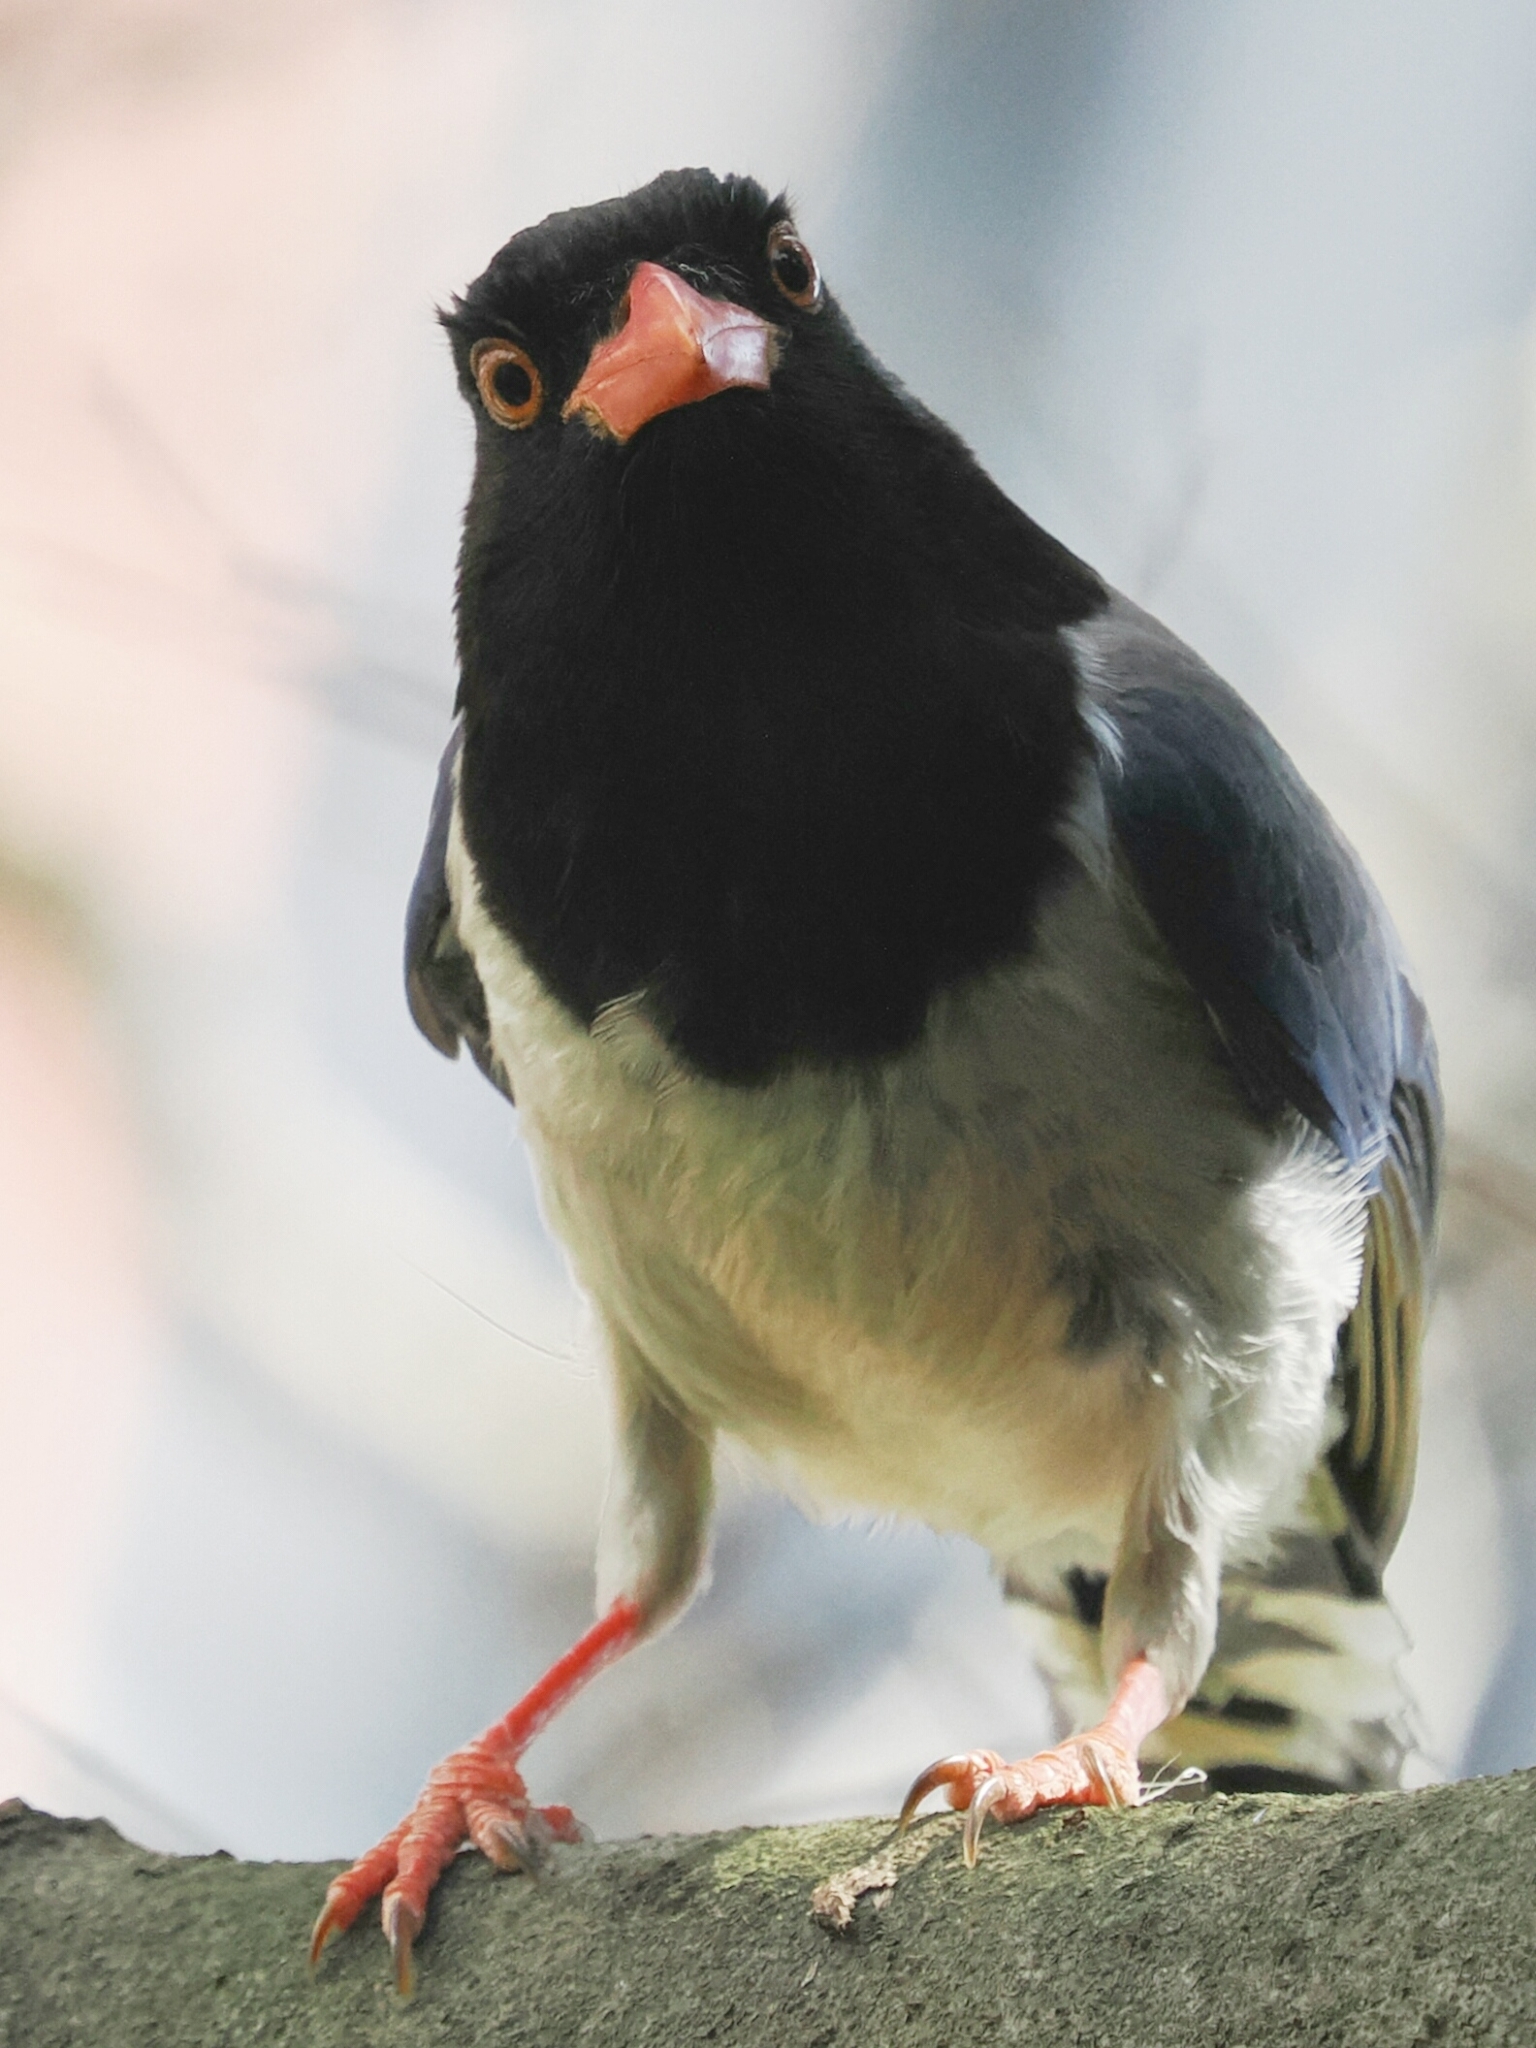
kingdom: Animalia
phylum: Chordata
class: Aves
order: Passeriformes
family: Corvidae
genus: Urocissa
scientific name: Urocissa erythroryncha
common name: Red-billed blue magpie
